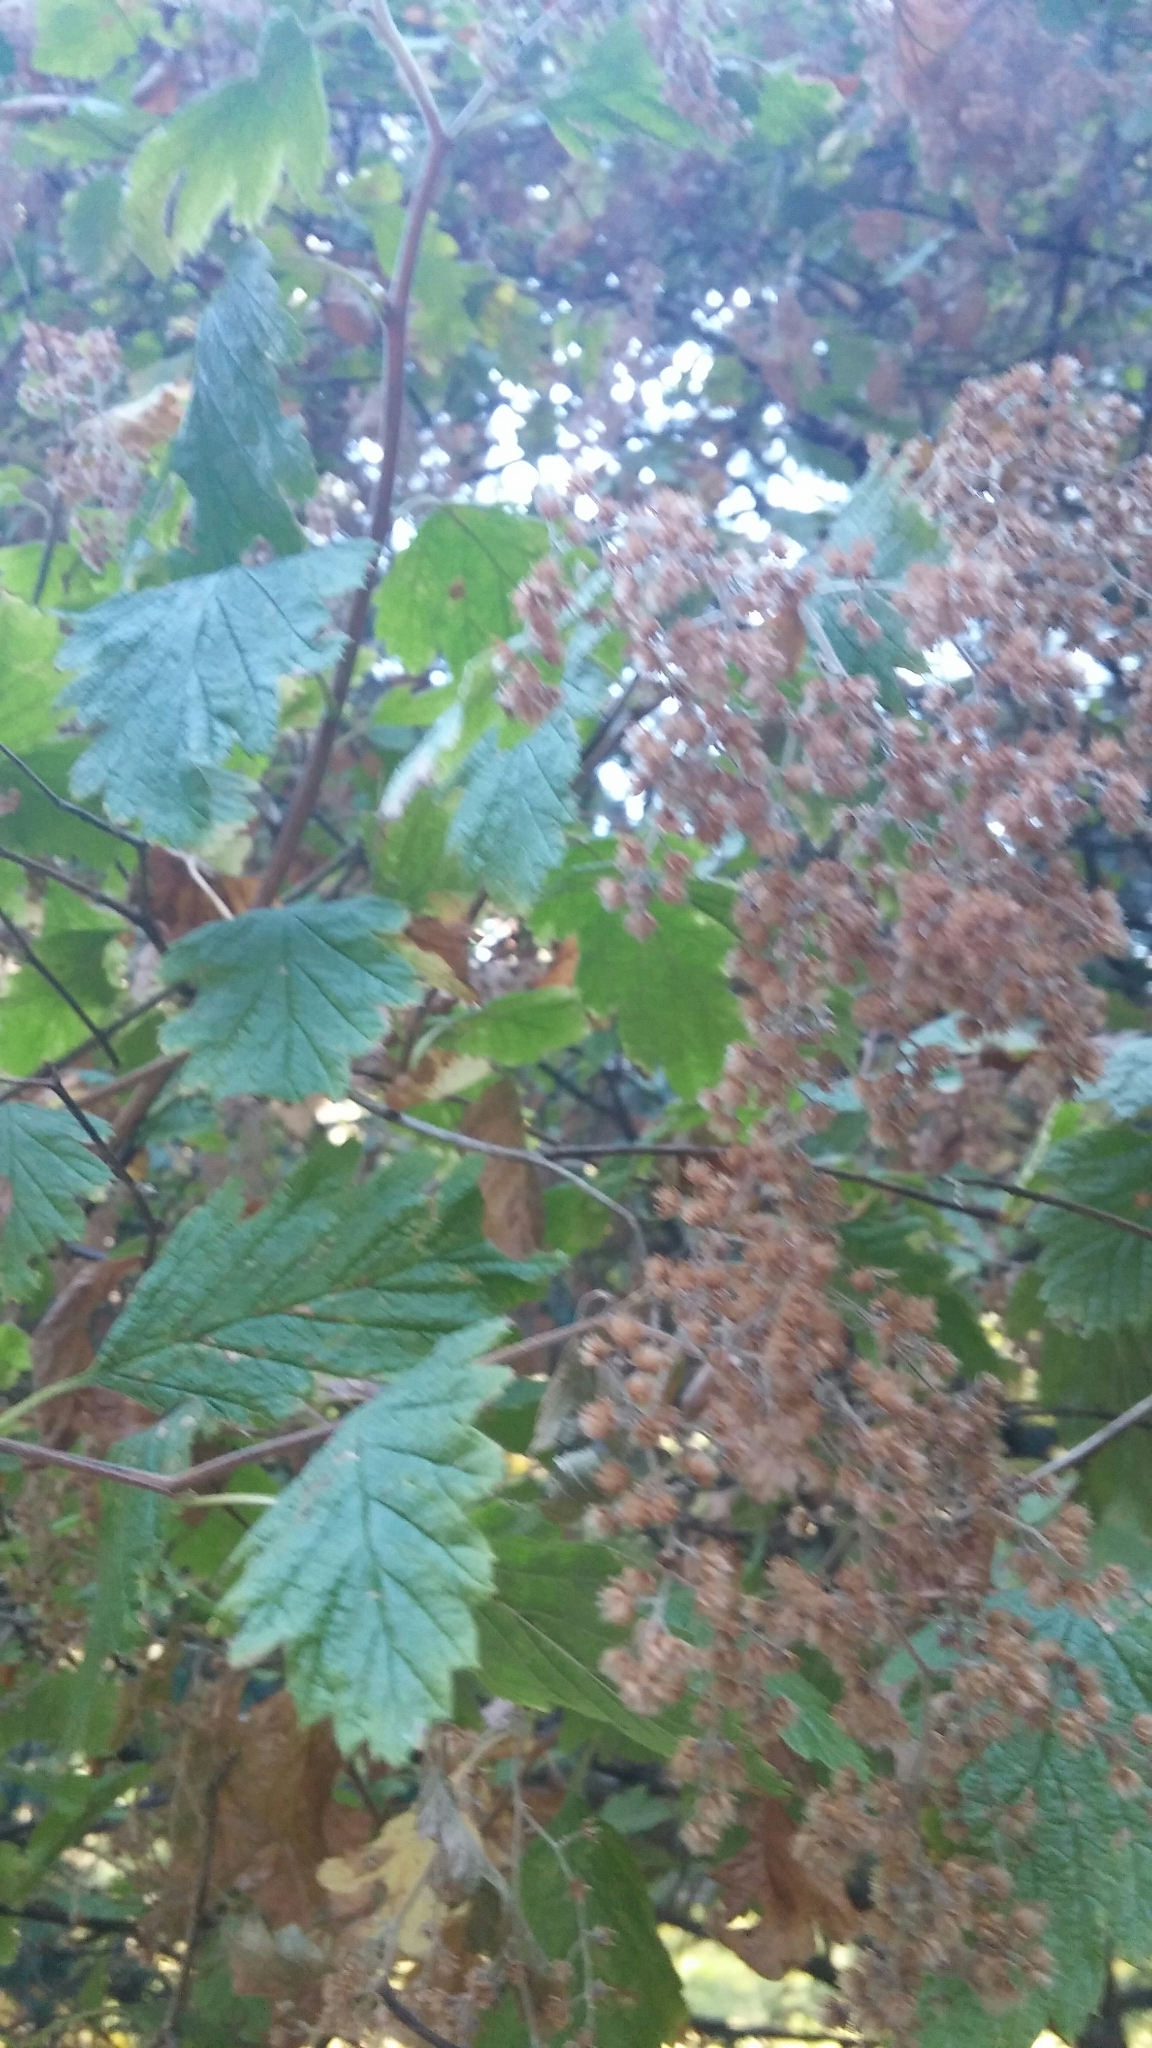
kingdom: Plantae
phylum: Tracheophyta
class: Magnoliopsida
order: Rosales
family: Rosaceae
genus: Holodiscus
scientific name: Holodiscus discolor
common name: Oceanspray
